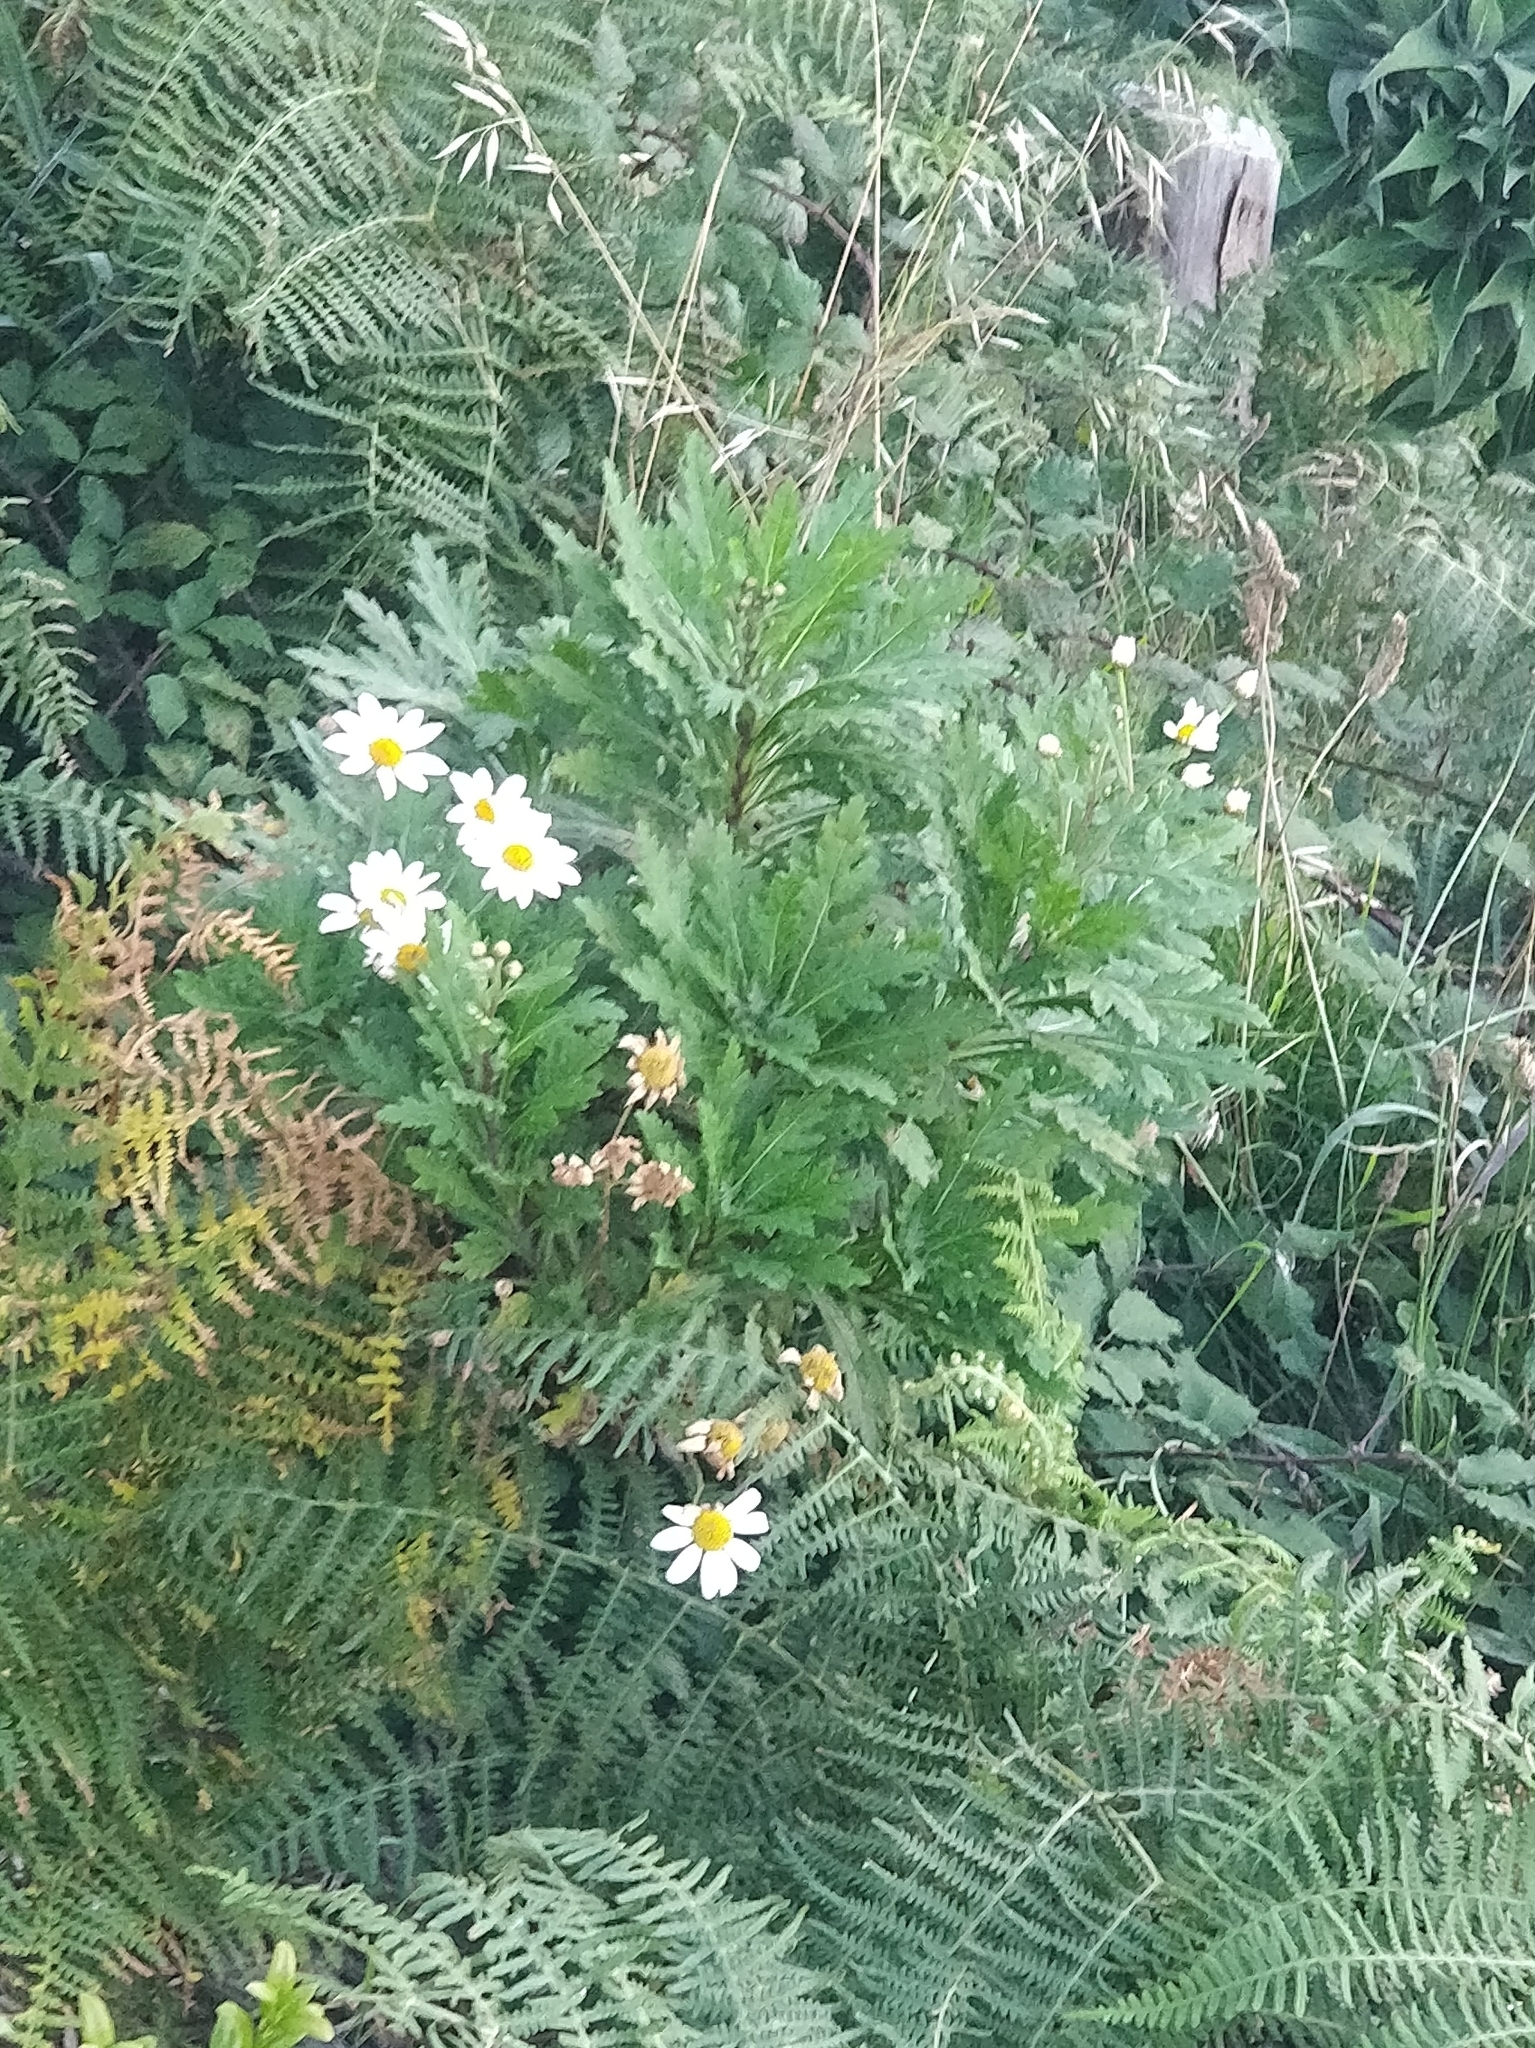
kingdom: Plantae
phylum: Tracheophyta
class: Magnoliopsida
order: Asterales
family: Asteraceae
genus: Argyranthemum
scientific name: Argyranthemum pinnatifidum
